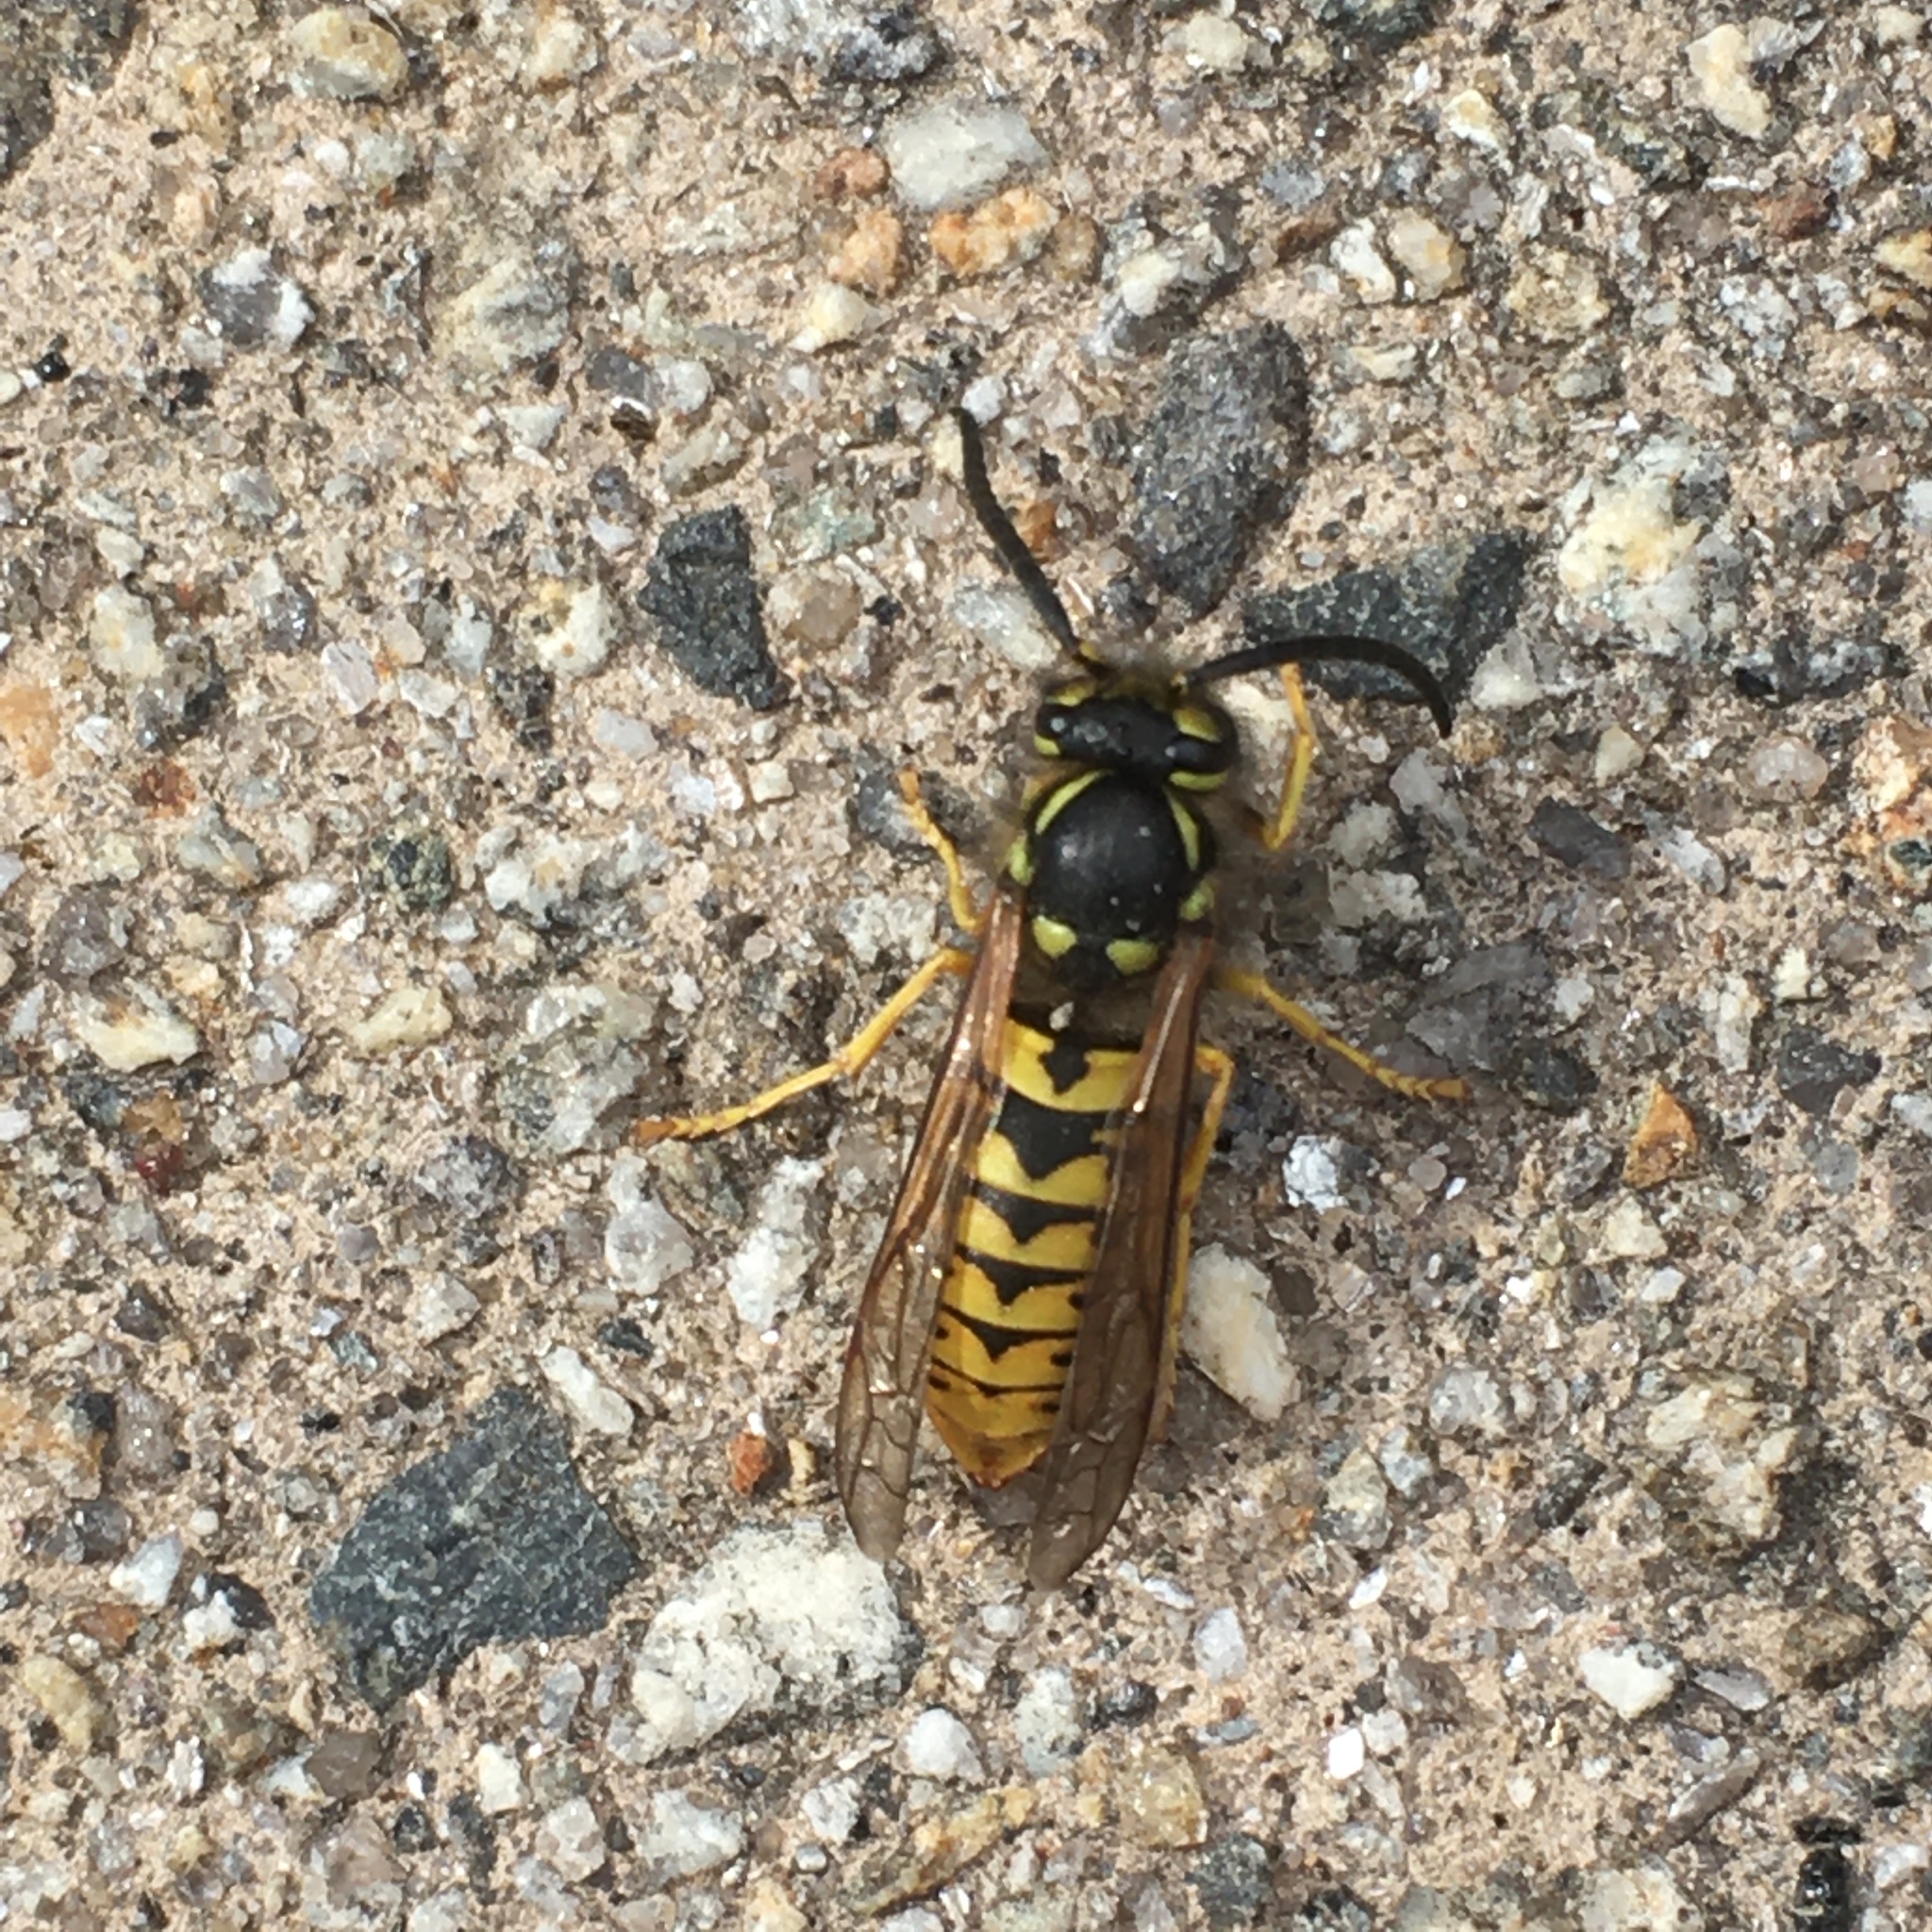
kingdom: Animalia
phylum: Arthropoda
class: Insecta
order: Hymenoptera
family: Vespidae
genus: Vespula
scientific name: Vespula germanica
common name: German wasp
